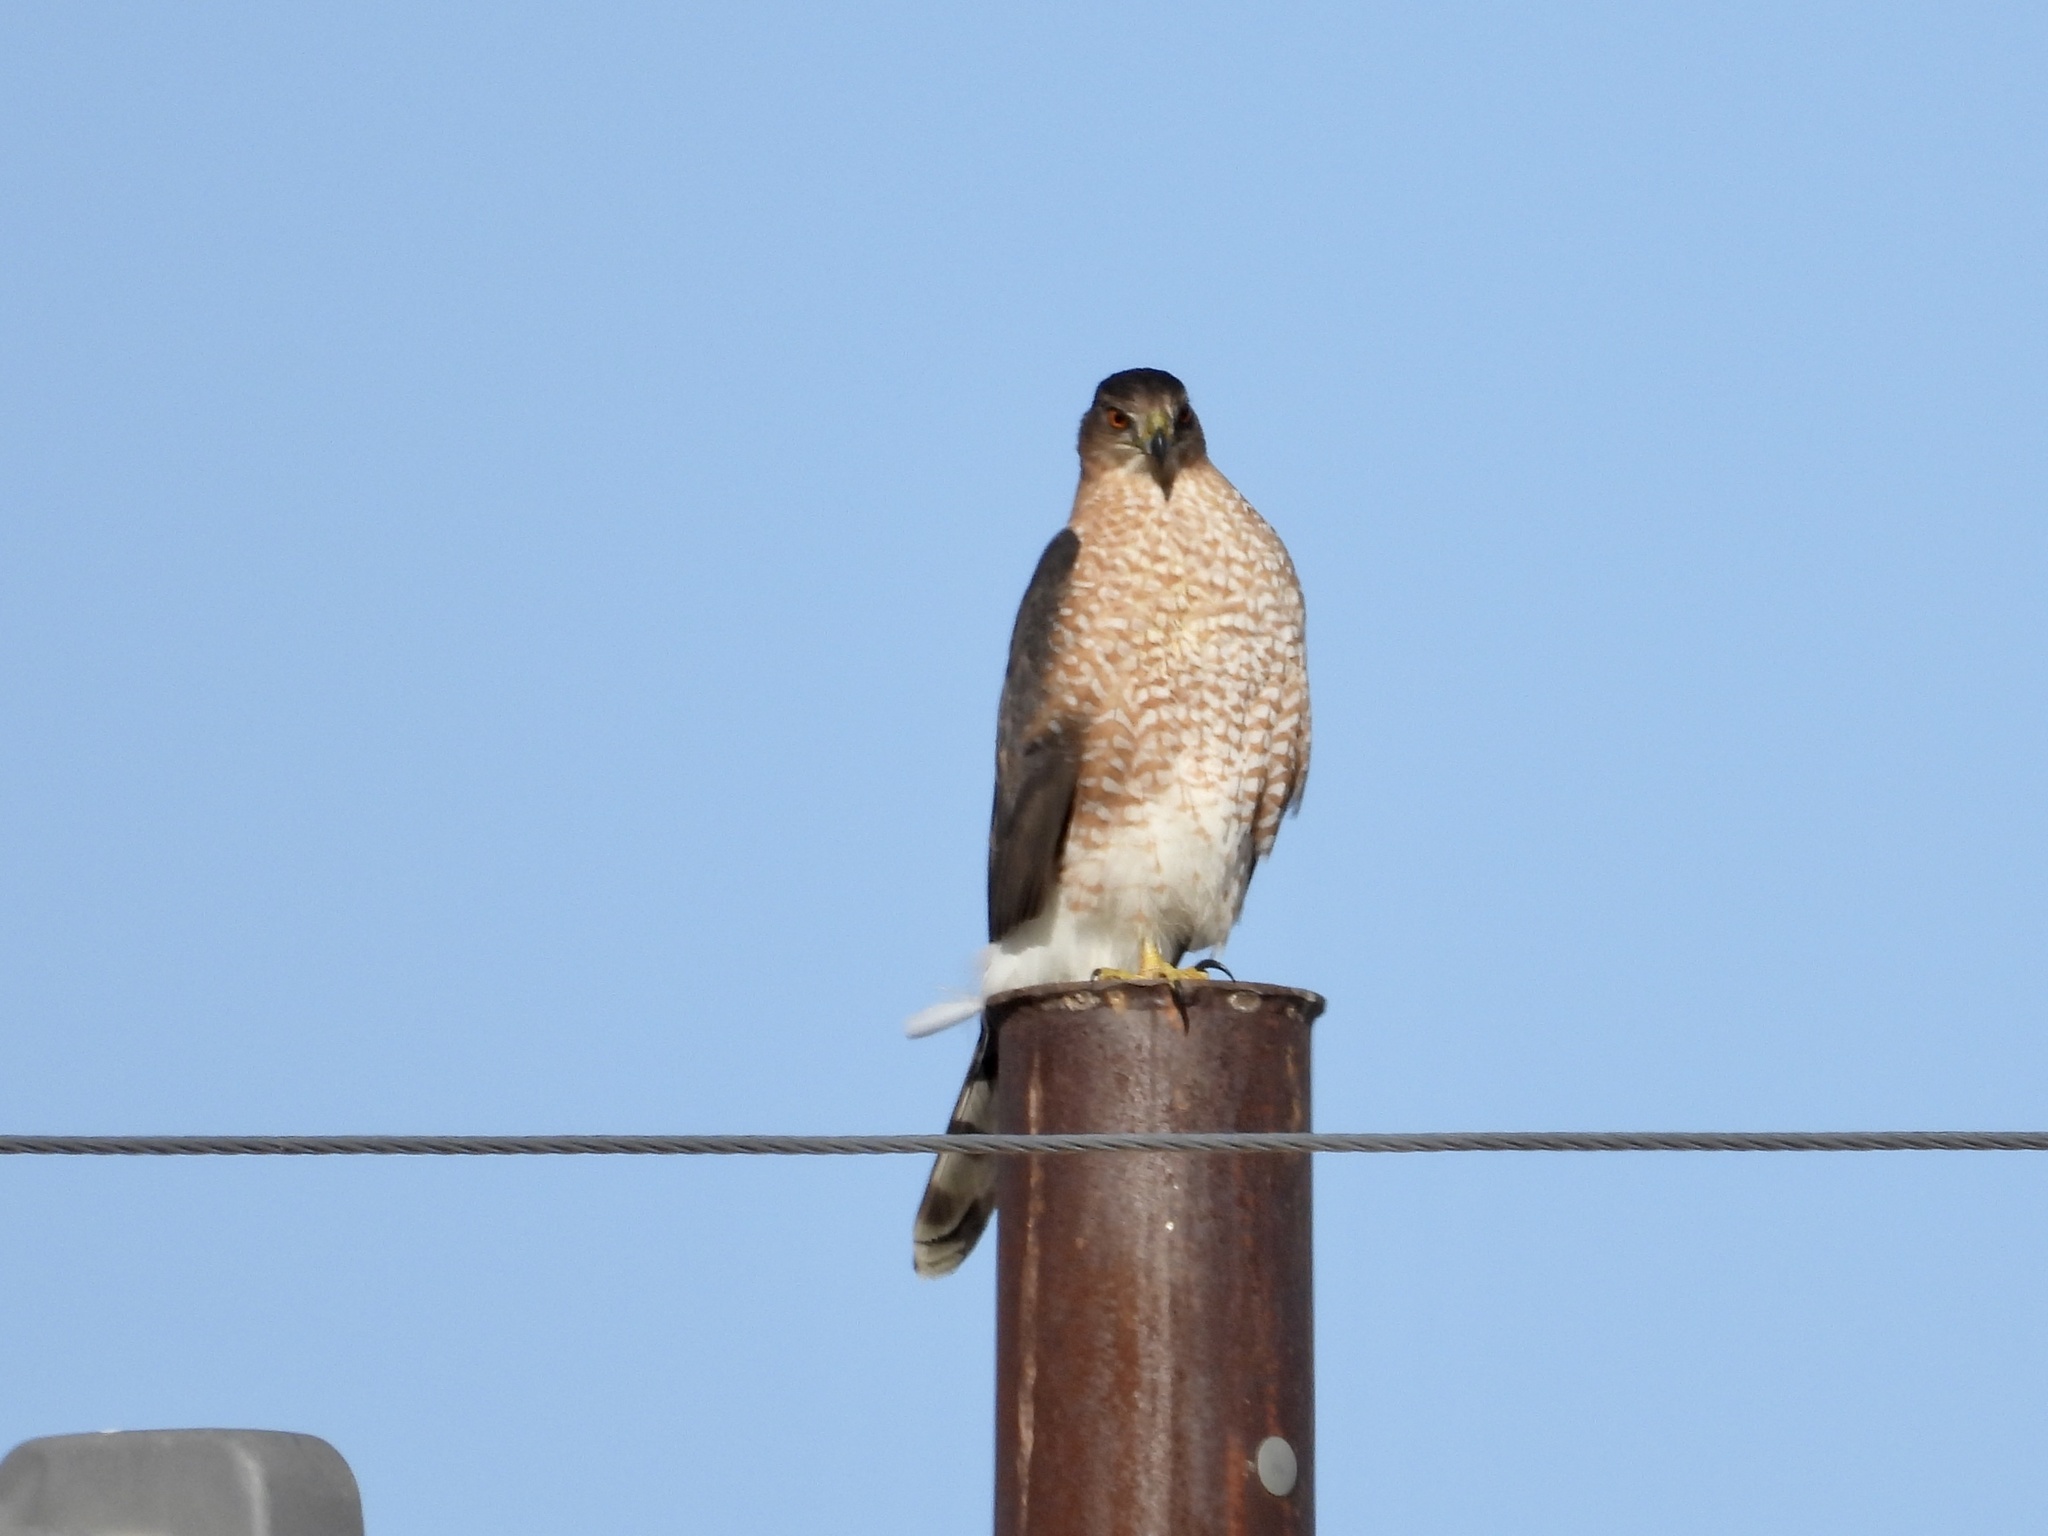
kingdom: Animalia
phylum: Chordata
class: Aves
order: Accipitriformes
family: Accipitridae
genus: Accipiter
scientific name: Accipiter cooperii
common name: Cooper's hawk
